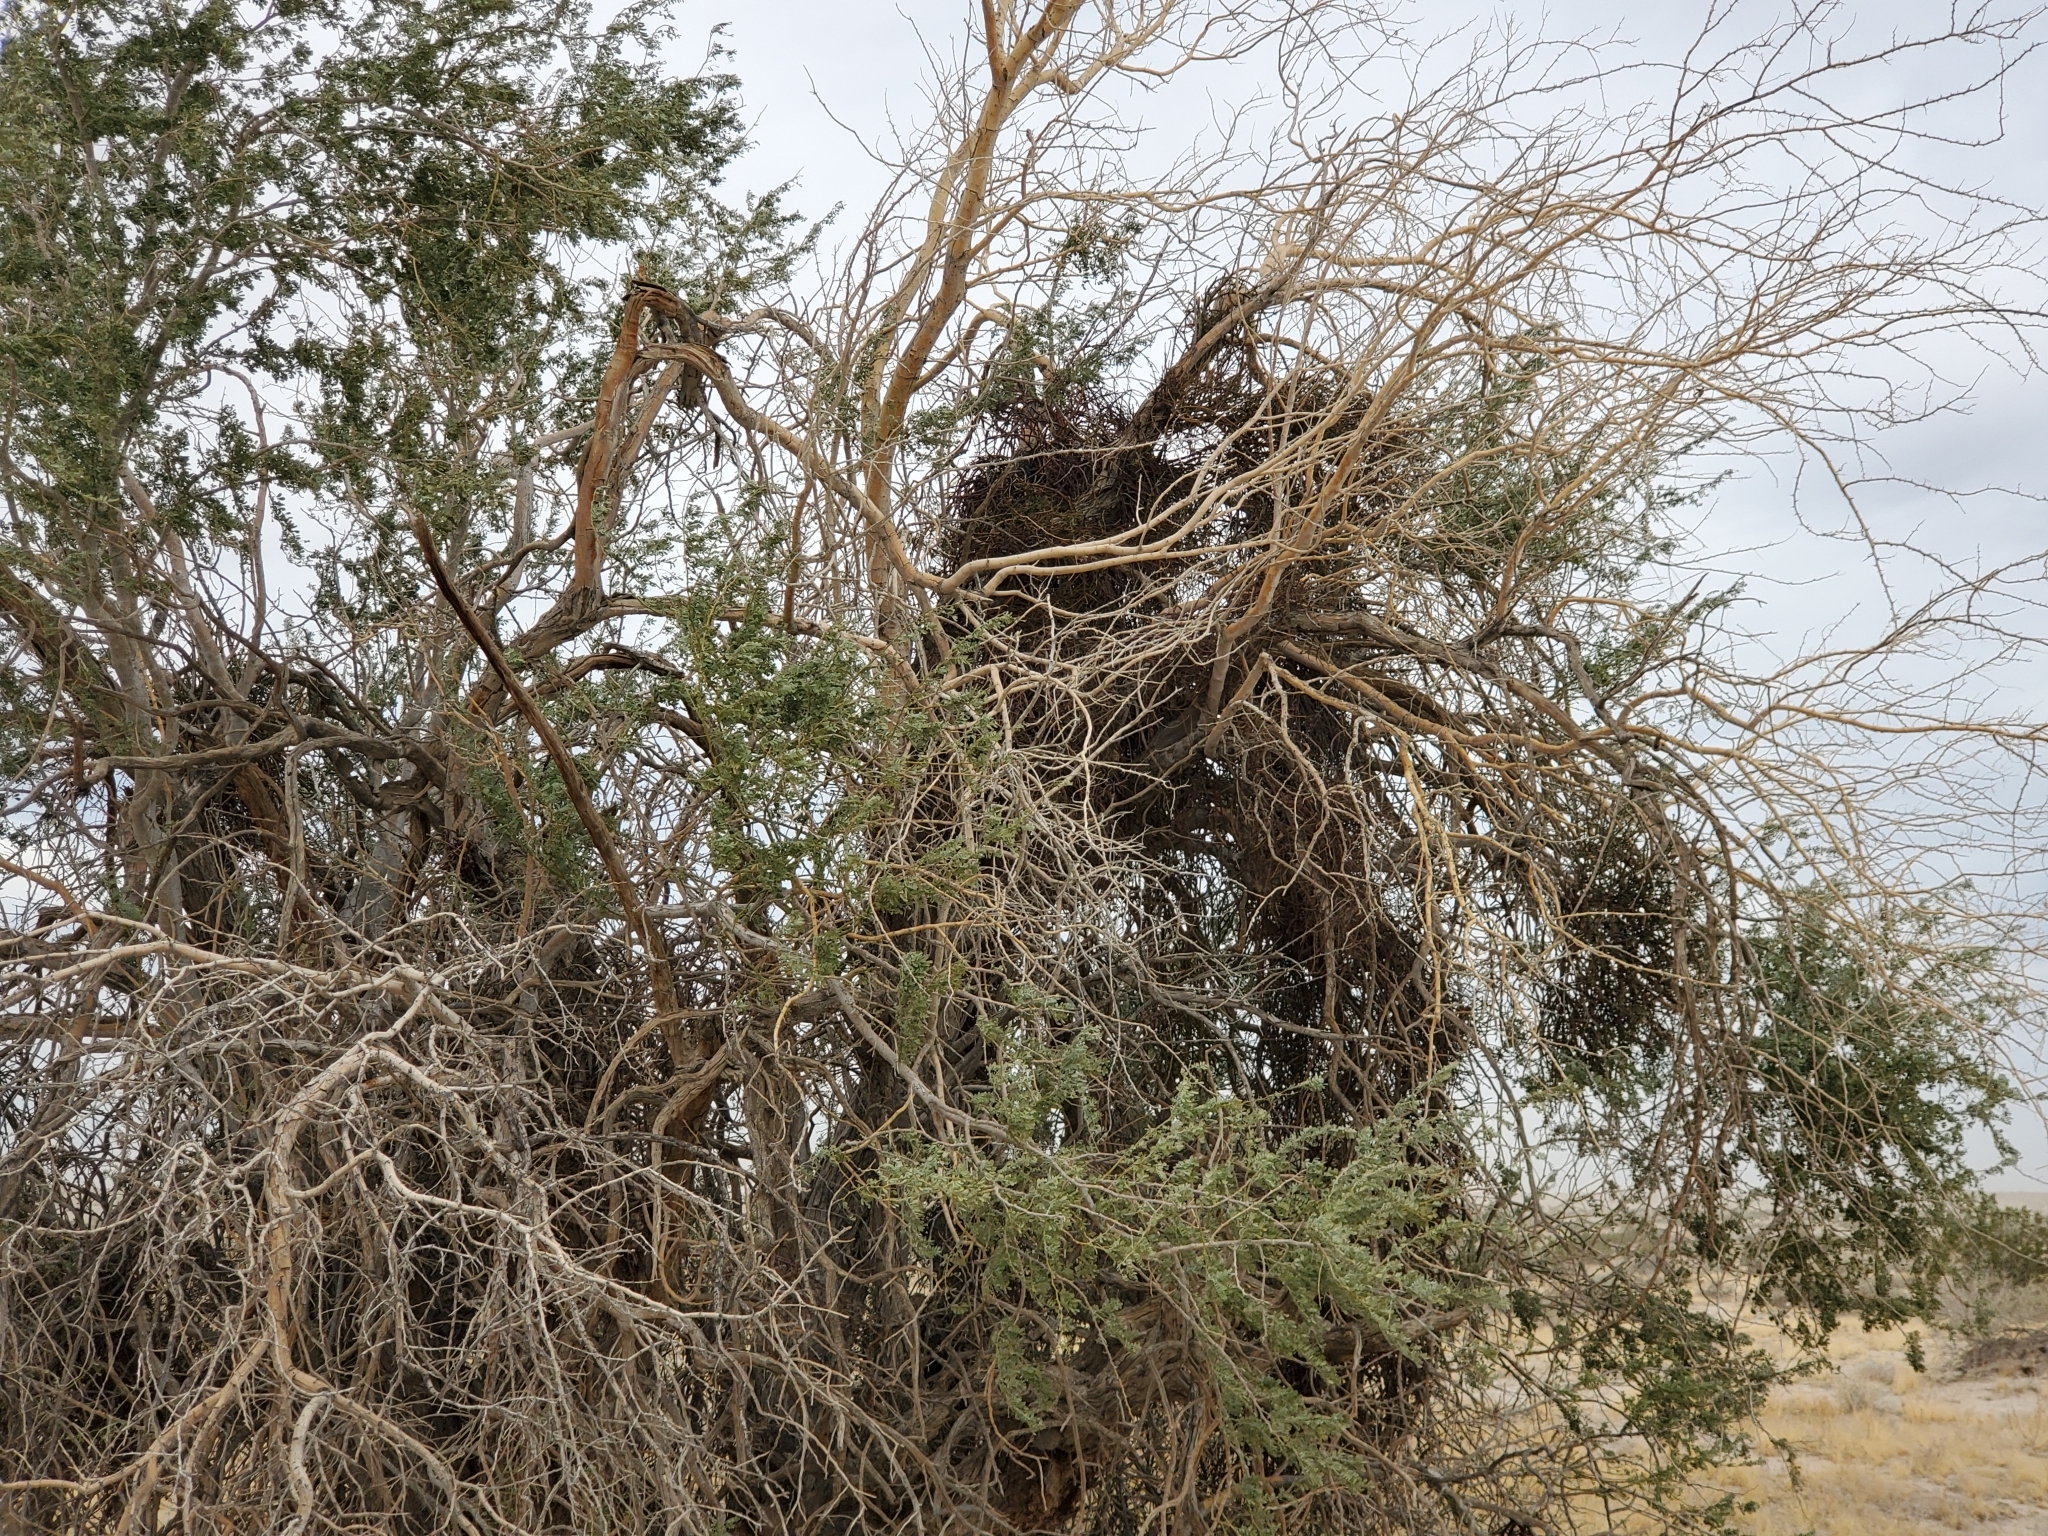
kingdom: Plantae
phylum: Tracheophyta
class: Magnoliopsida
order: Santalales
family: Viscaceae
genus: Phoradendron
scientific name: Phoradendron californicum
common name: Acacia mistletoe
